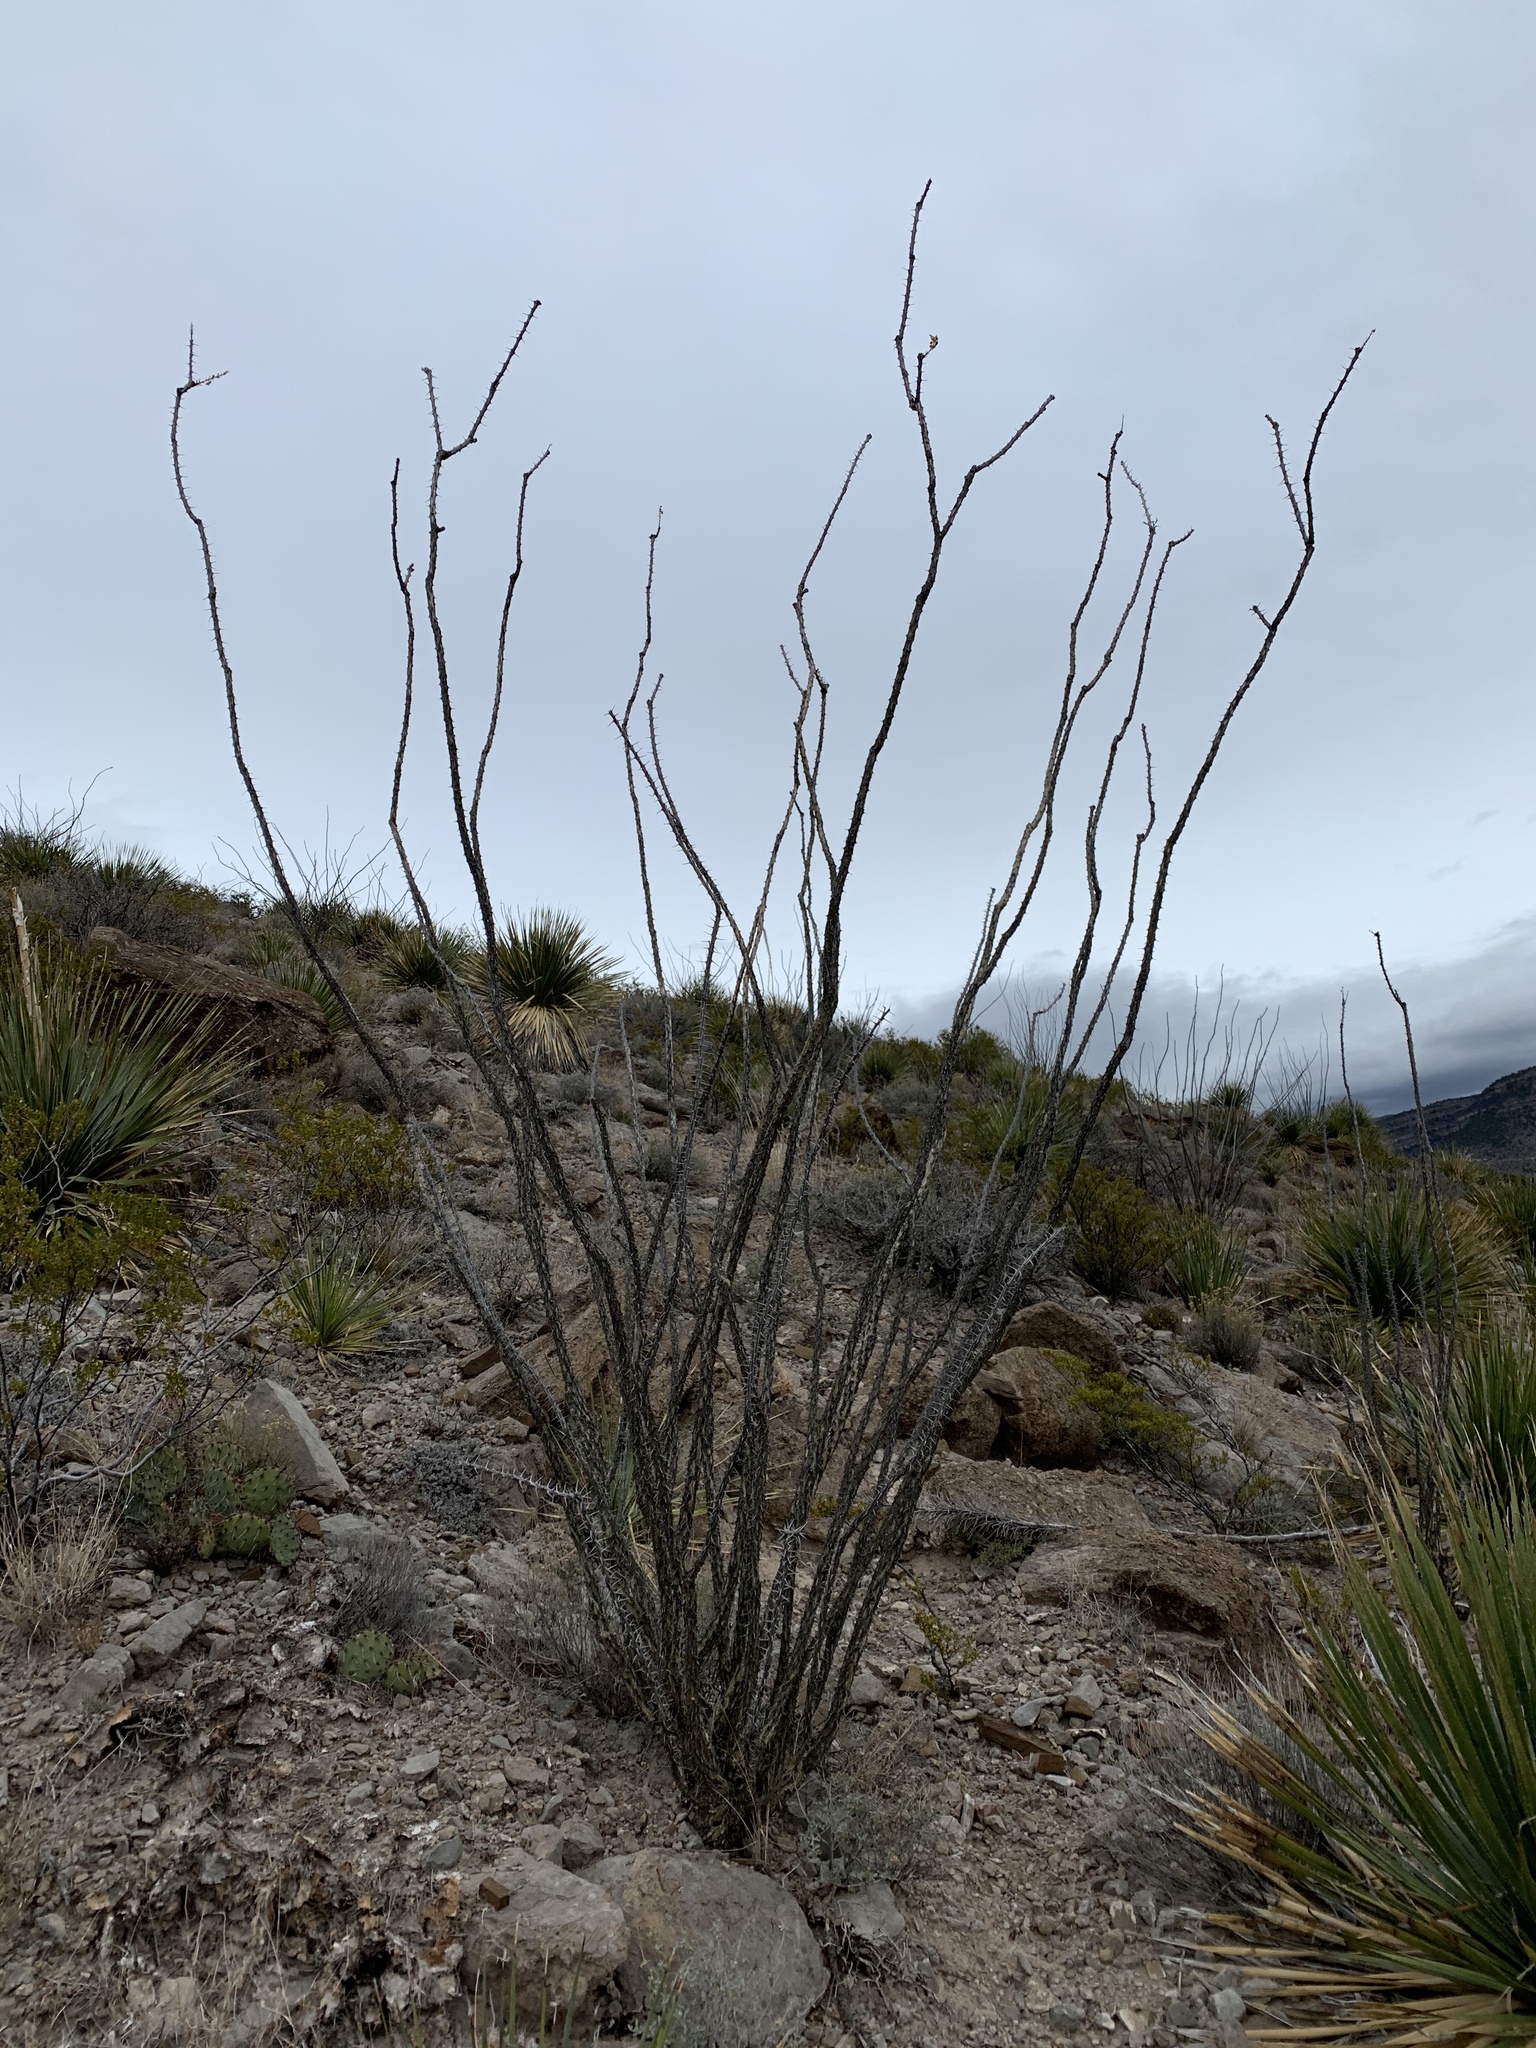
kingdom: Plantae
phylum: Tracheophyta
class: Magnoliopsida
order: Ericales
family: Fouquieriaceae
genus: Fouquieria
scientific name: Fouquieria splendens
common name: Vine-cactus
